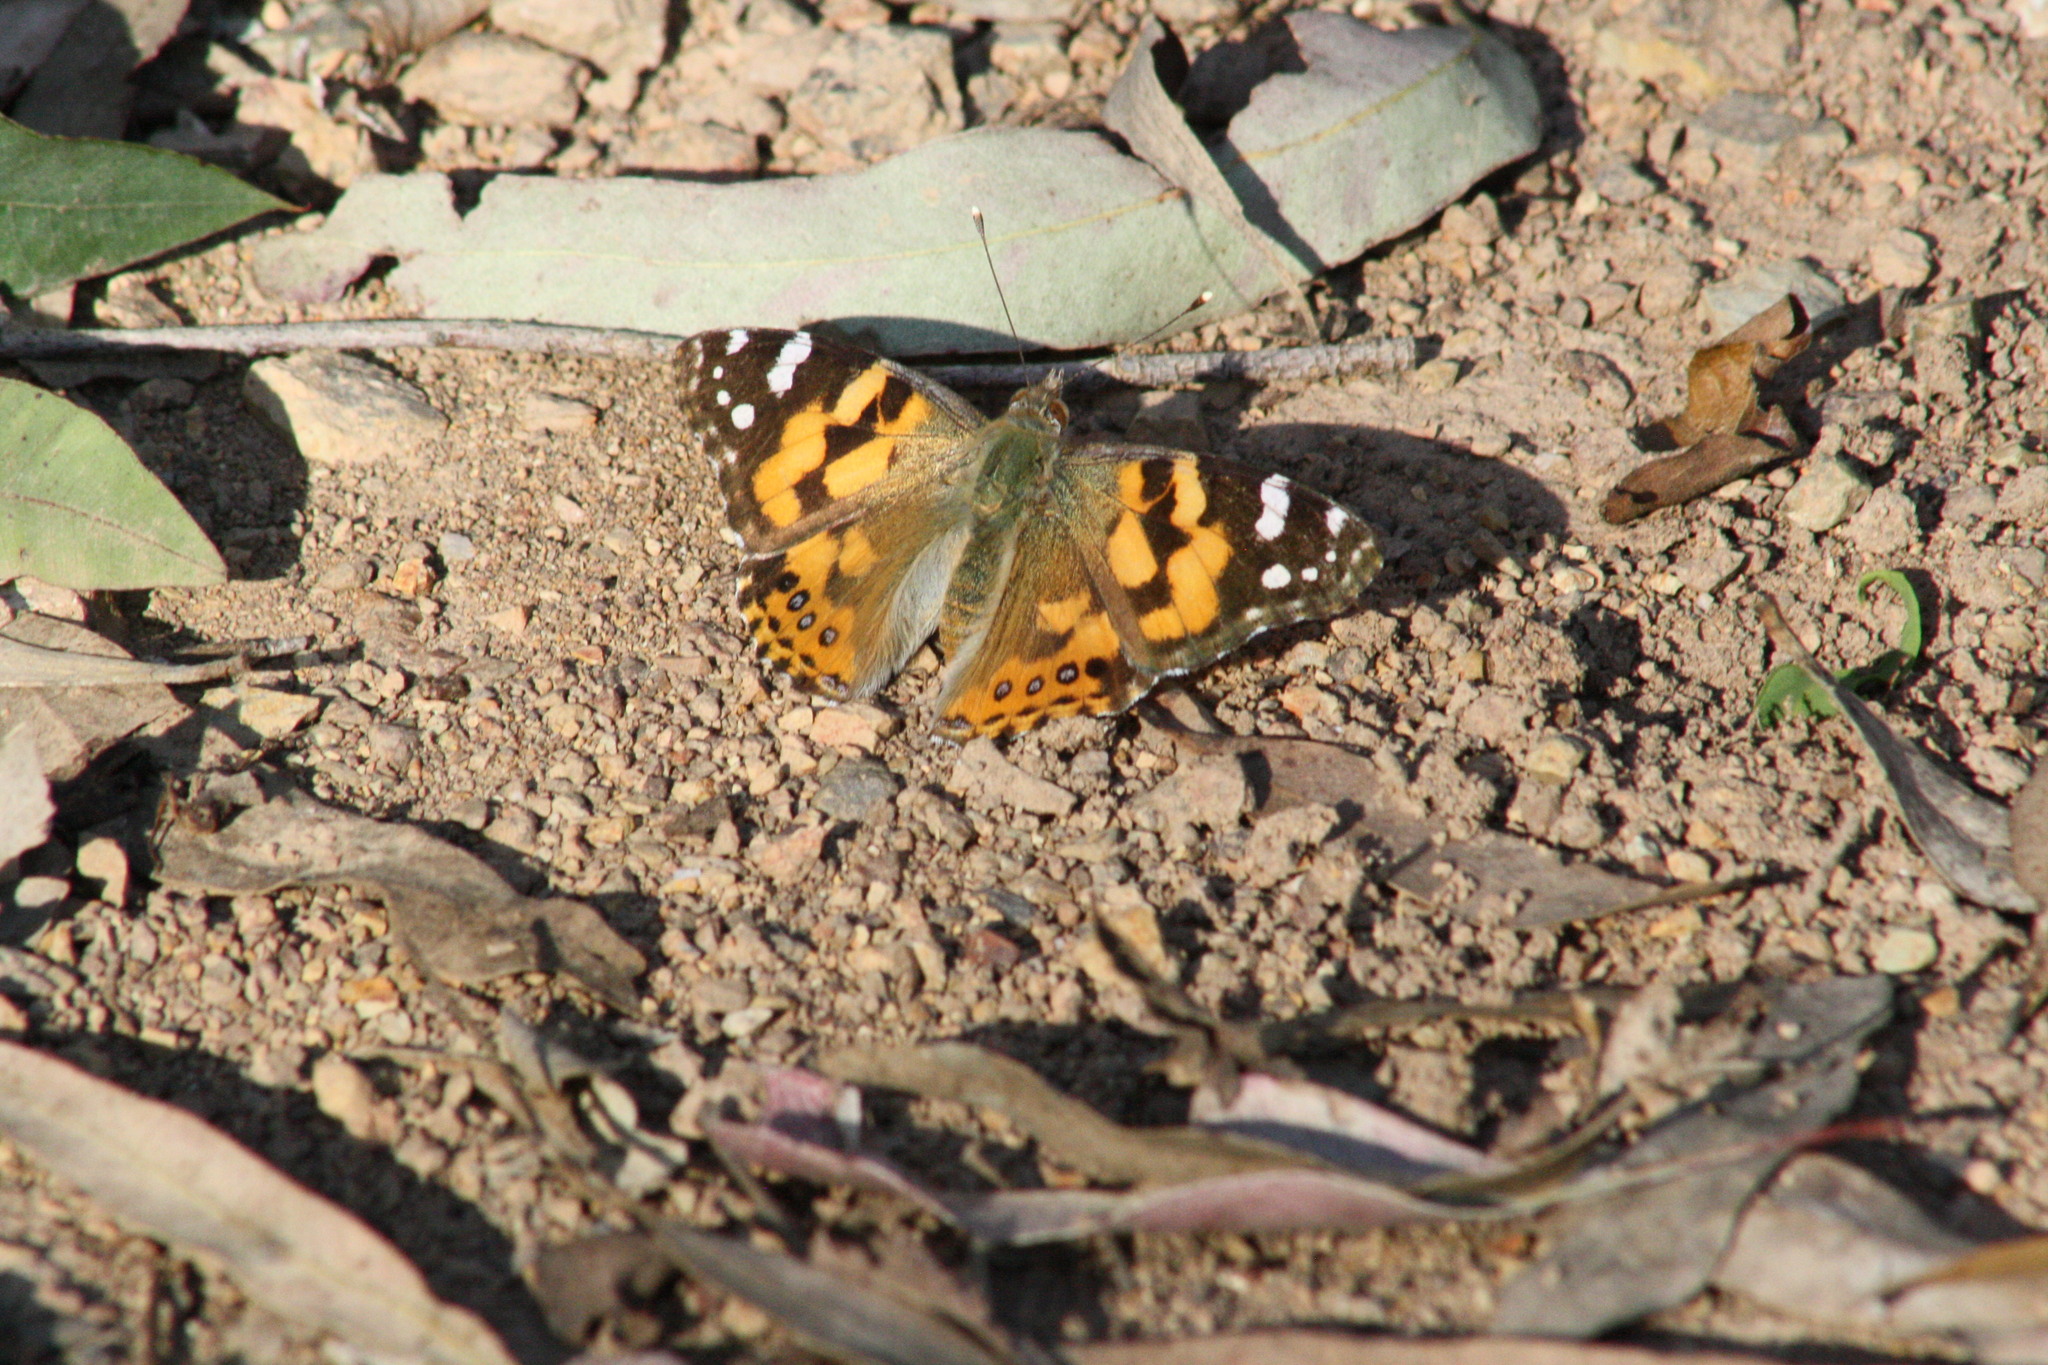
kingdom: Animalia
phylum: Arthropoda
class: Insecta
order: Lepidoptera
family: Nymphalidae
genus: Vanessa
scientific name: Vanessa kershawi
